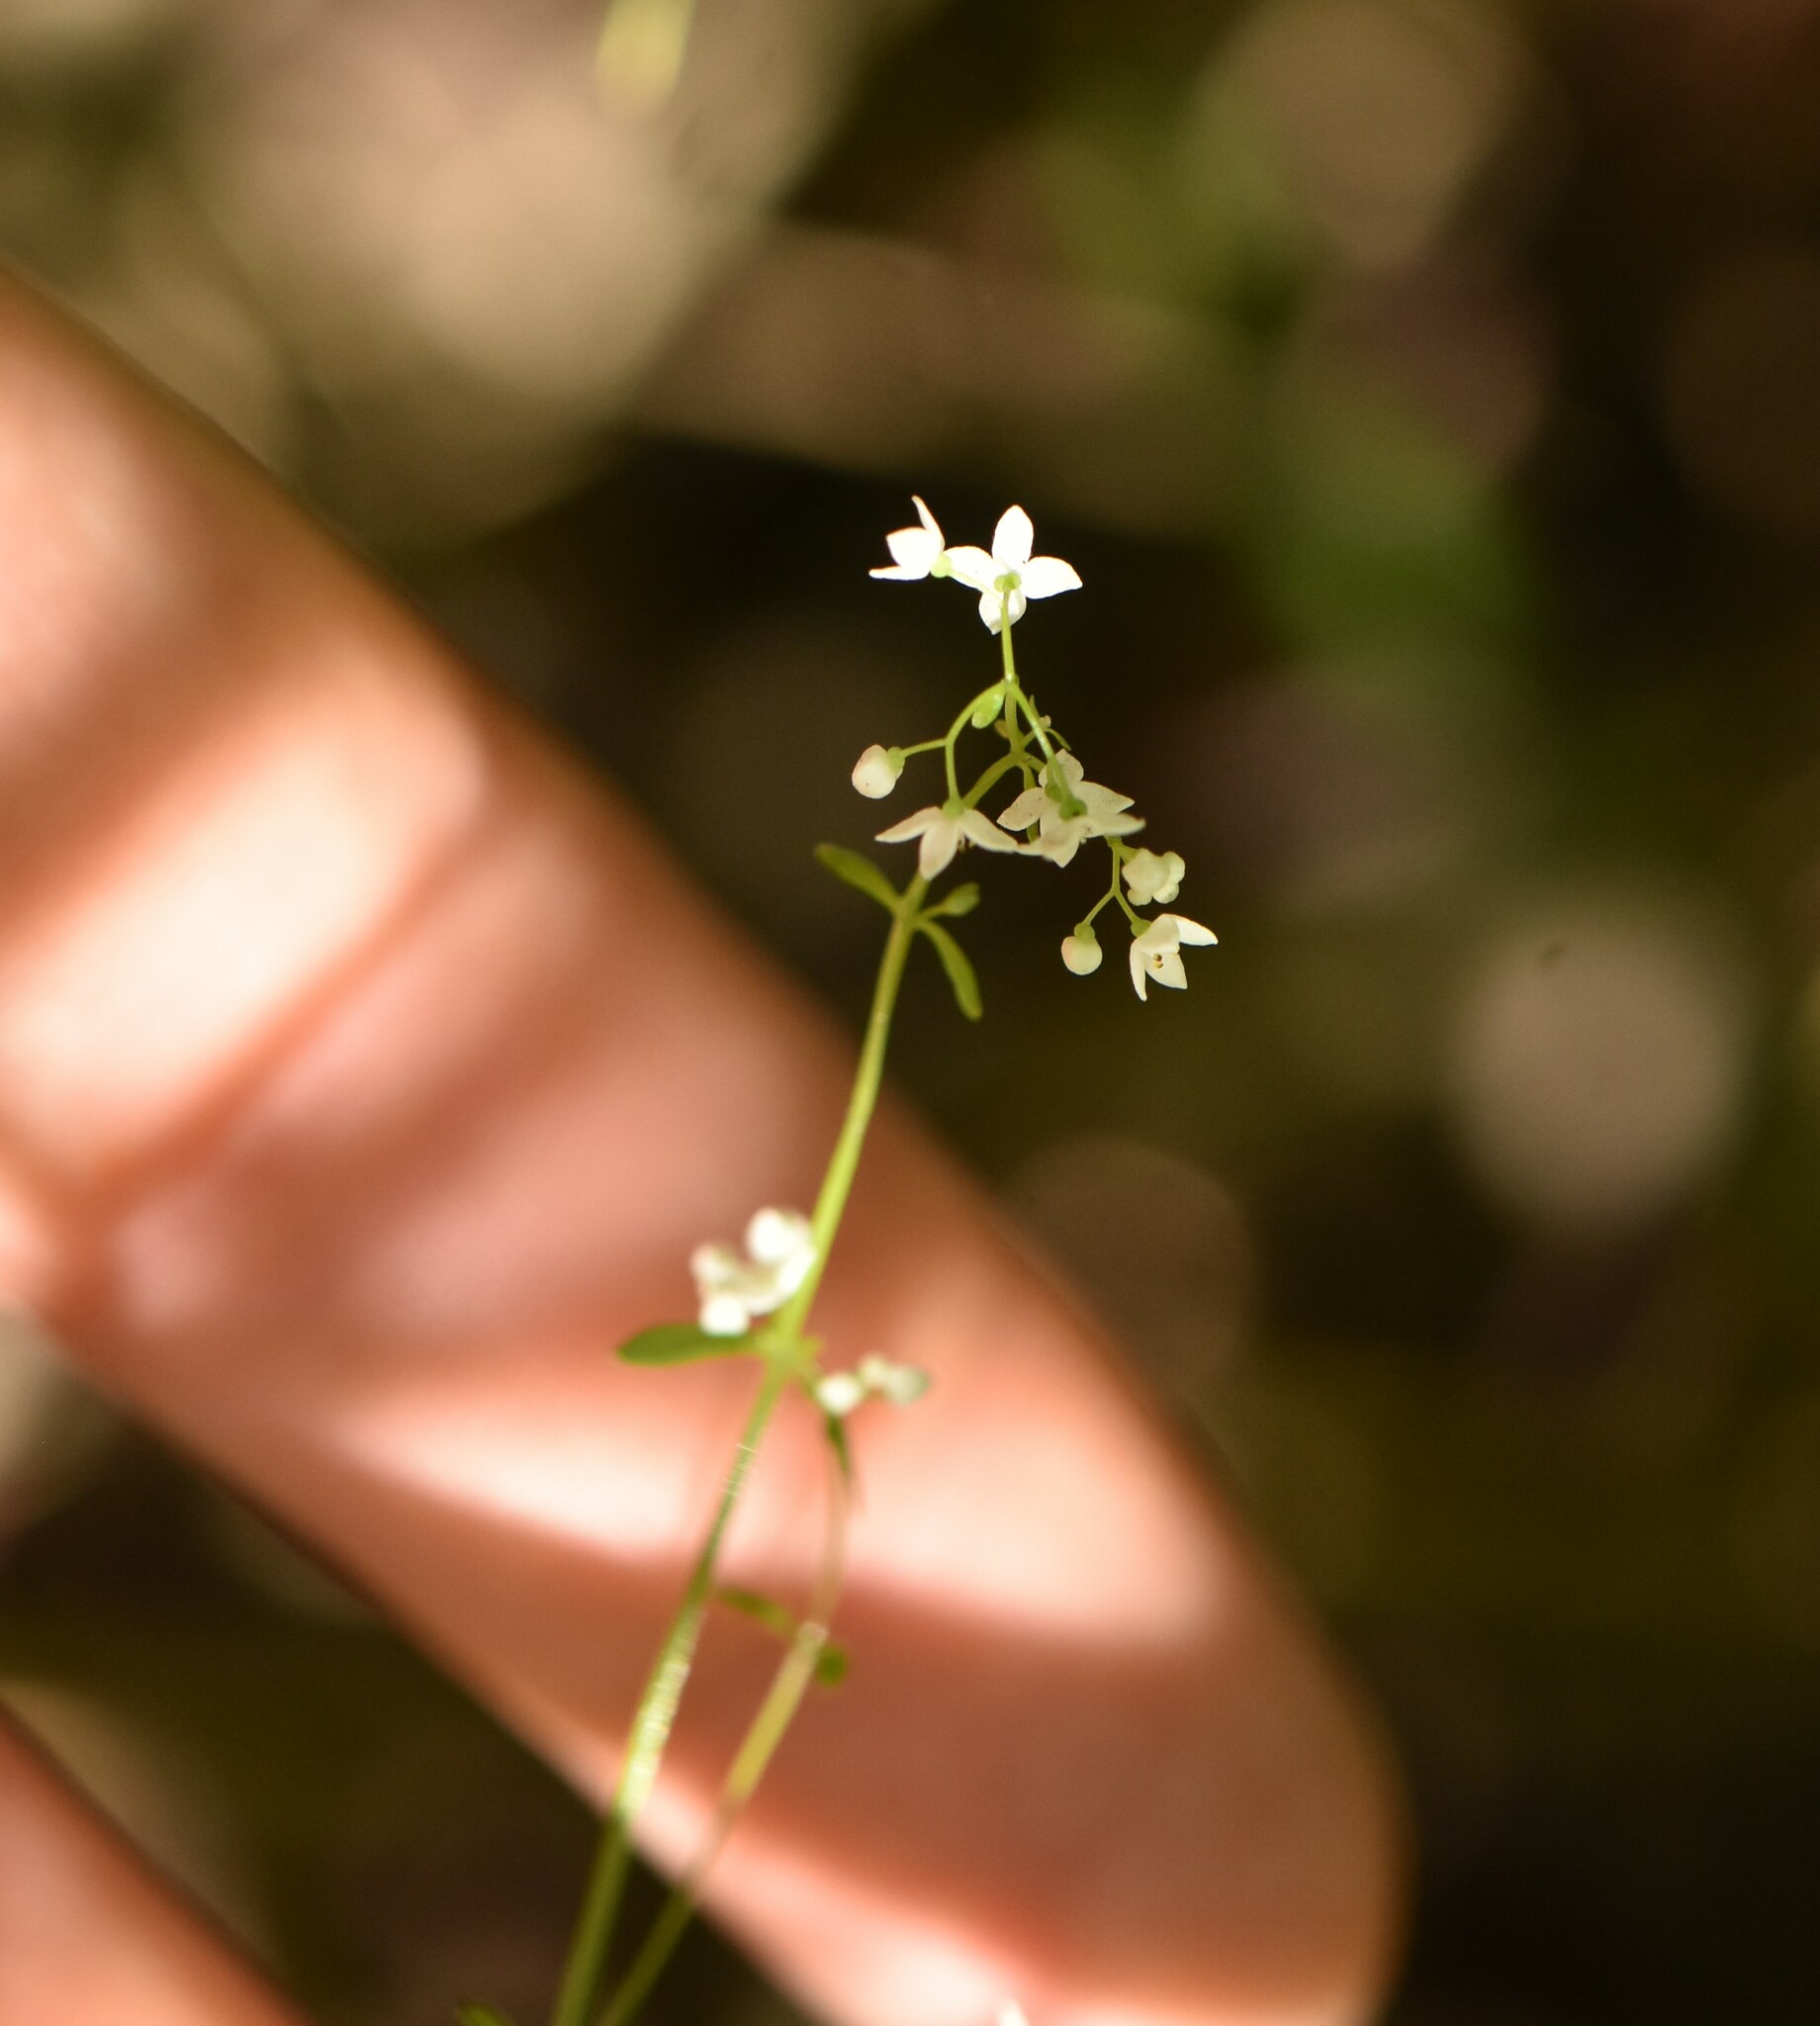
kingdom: Plantae
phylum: Tracheophyta
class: Magnoliopsida
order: Gentianales
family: Rubiaceae
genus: Galium
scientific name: Galium palustre
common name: Common marsh-bedstraw
